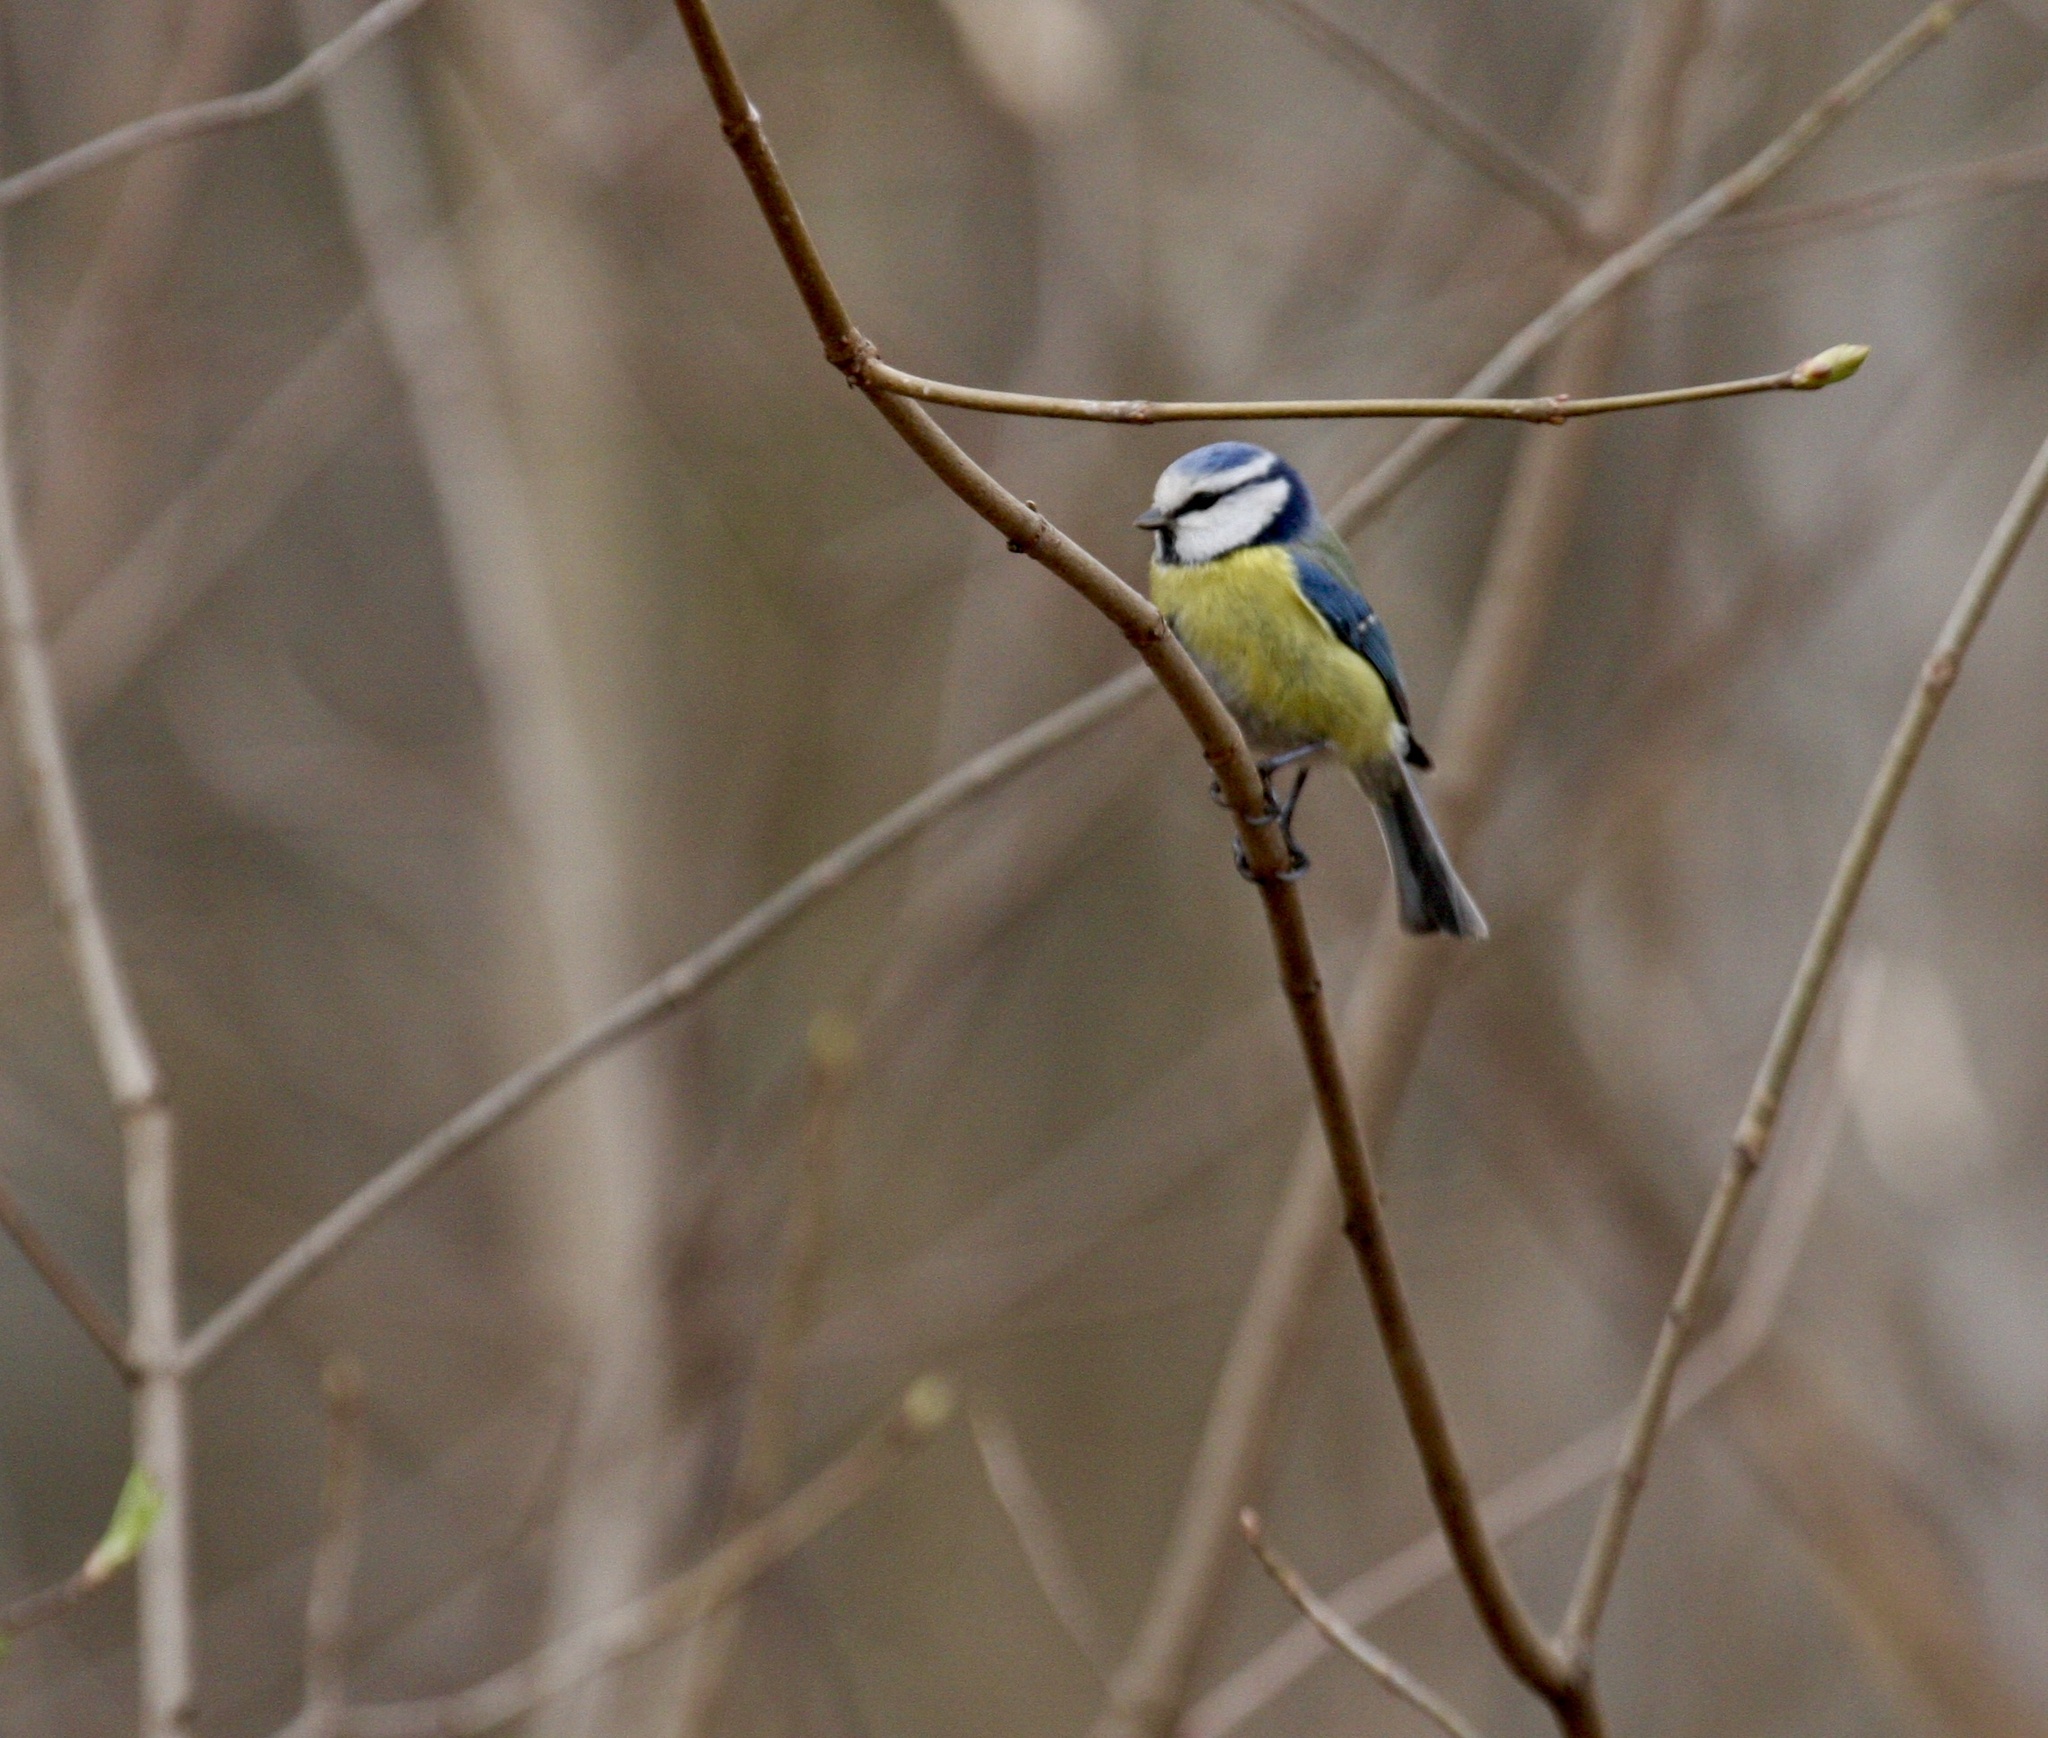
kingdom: Animalia
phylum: Chordata
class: Aves
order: Passeriformes
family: Paridae
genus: Cyanistes
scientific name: Cyanistes caeruleus
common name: Eurasian blue tit
